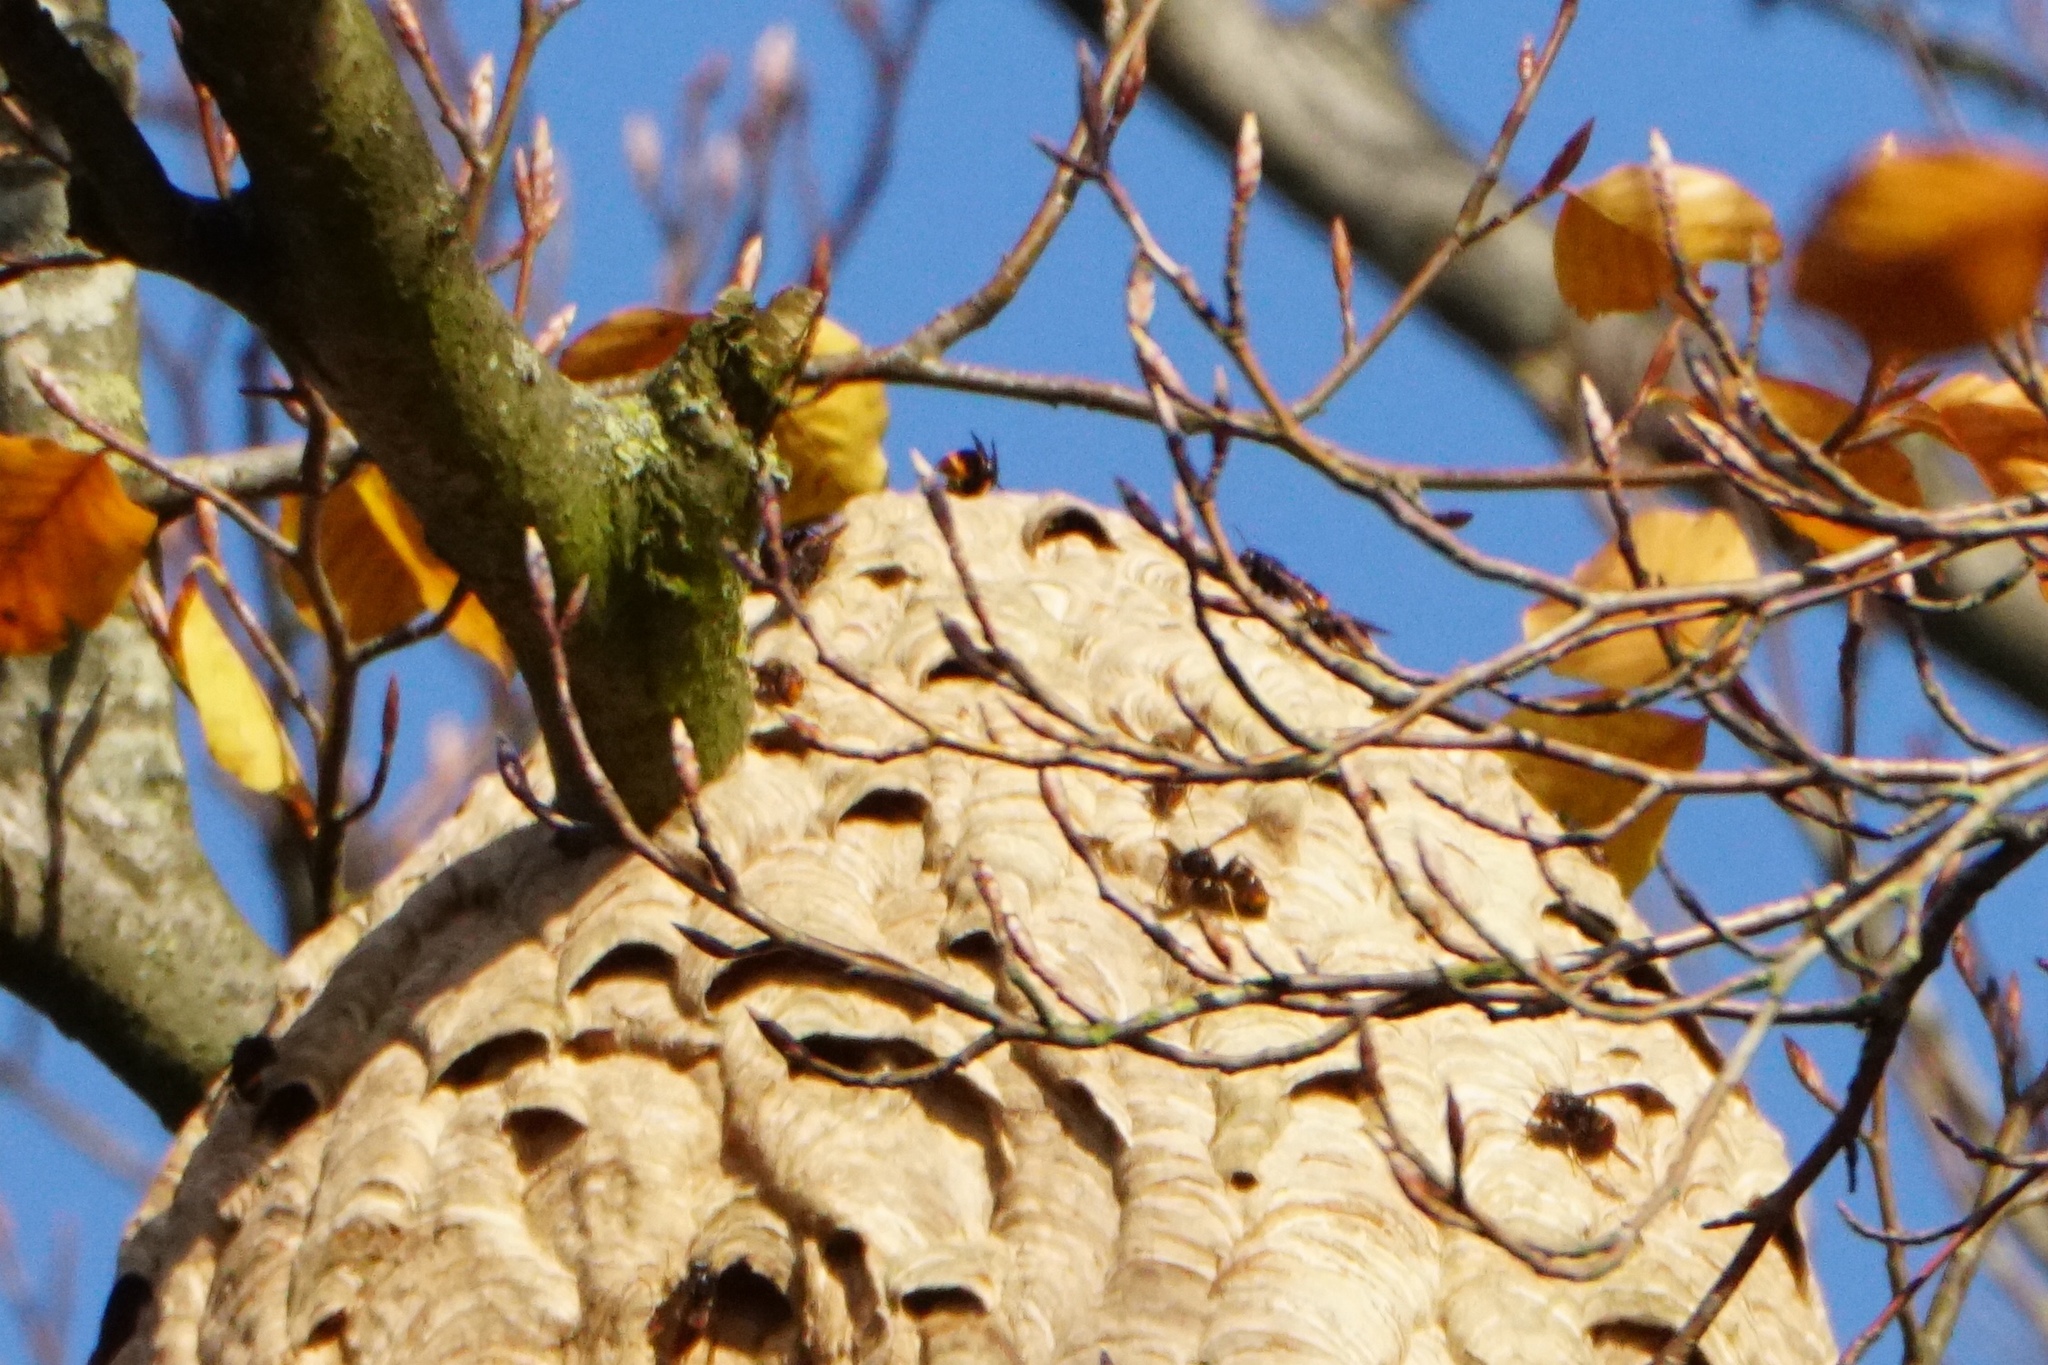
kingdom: Animalia
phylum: Arthropoda
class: Insecta
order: Hymenoptera
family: Vespidae
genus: Vespa
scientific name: Vespa velutina
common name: Asian hornet
